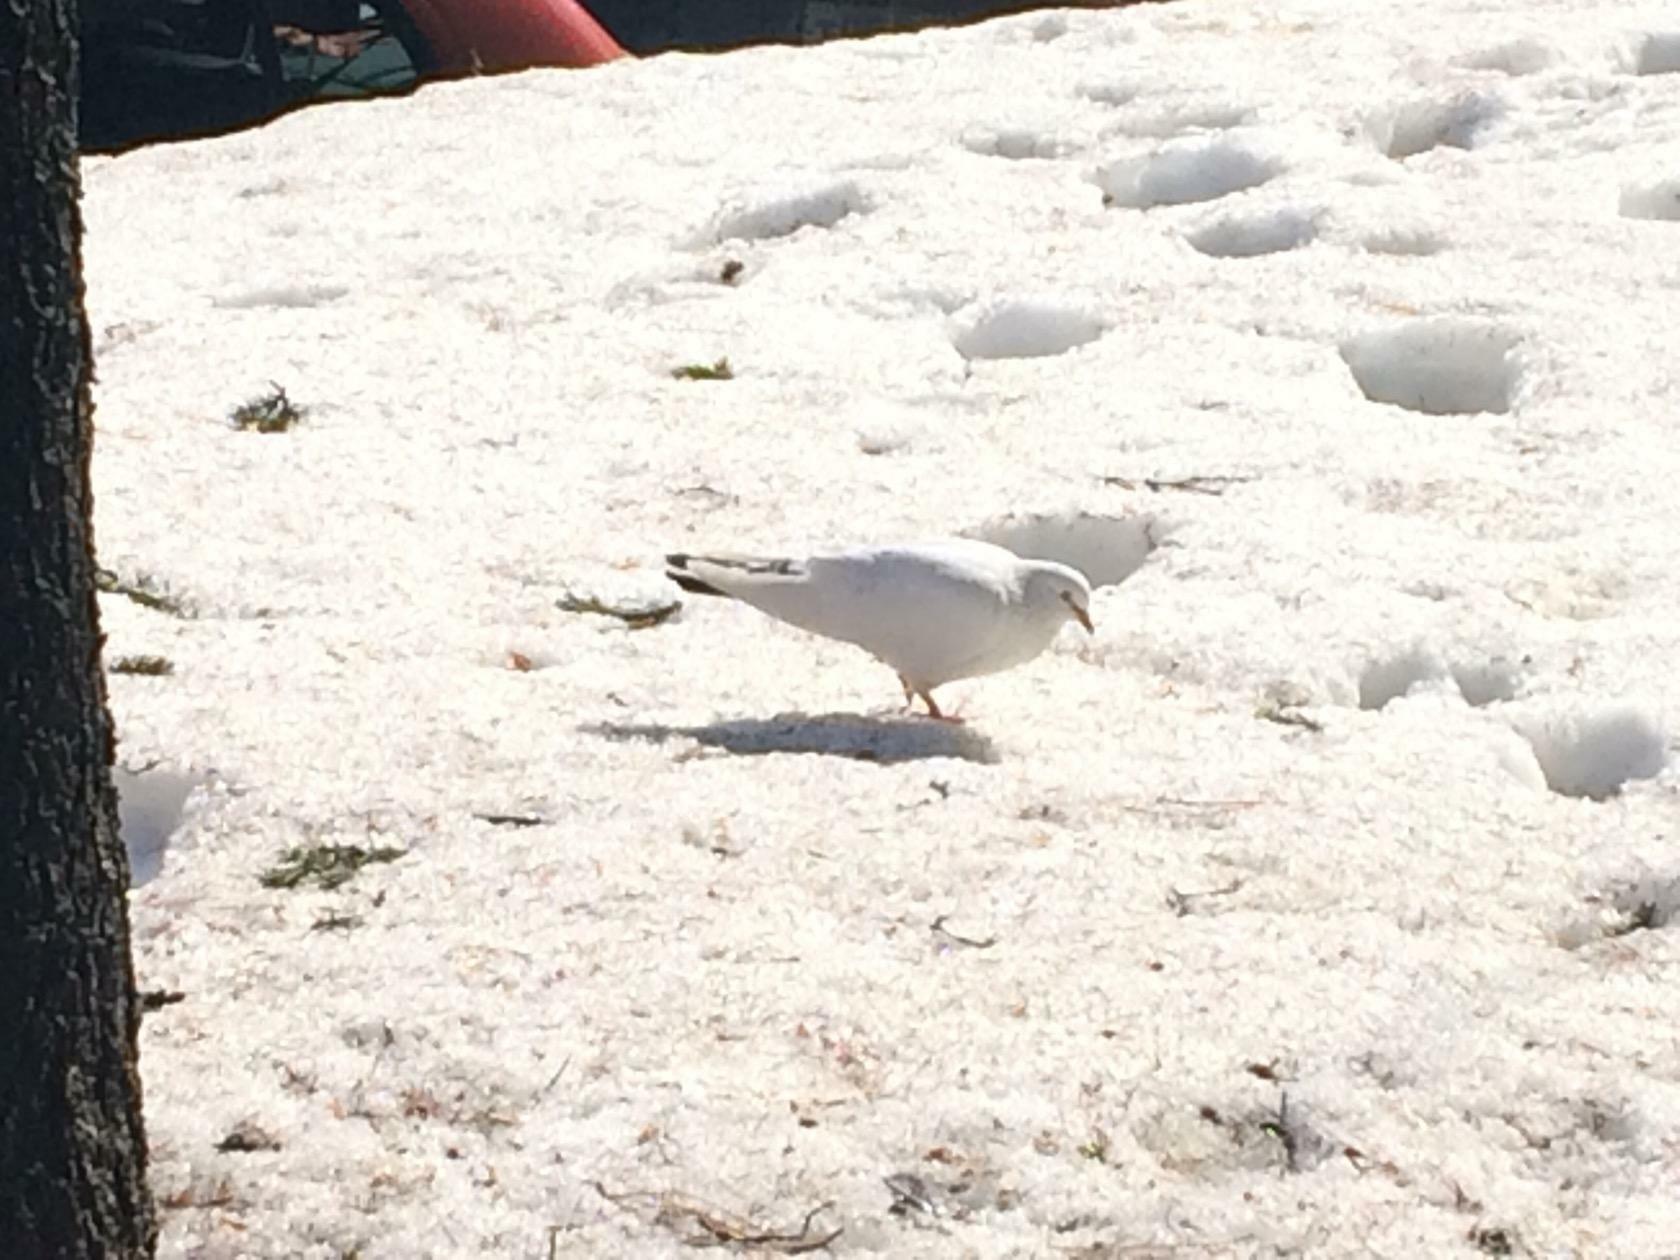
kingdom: Animalia
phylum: Chordata
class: Aves
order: Columbiformes
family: Columbidae
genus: Columba
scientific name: Columba livia
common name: Rock pigeon
